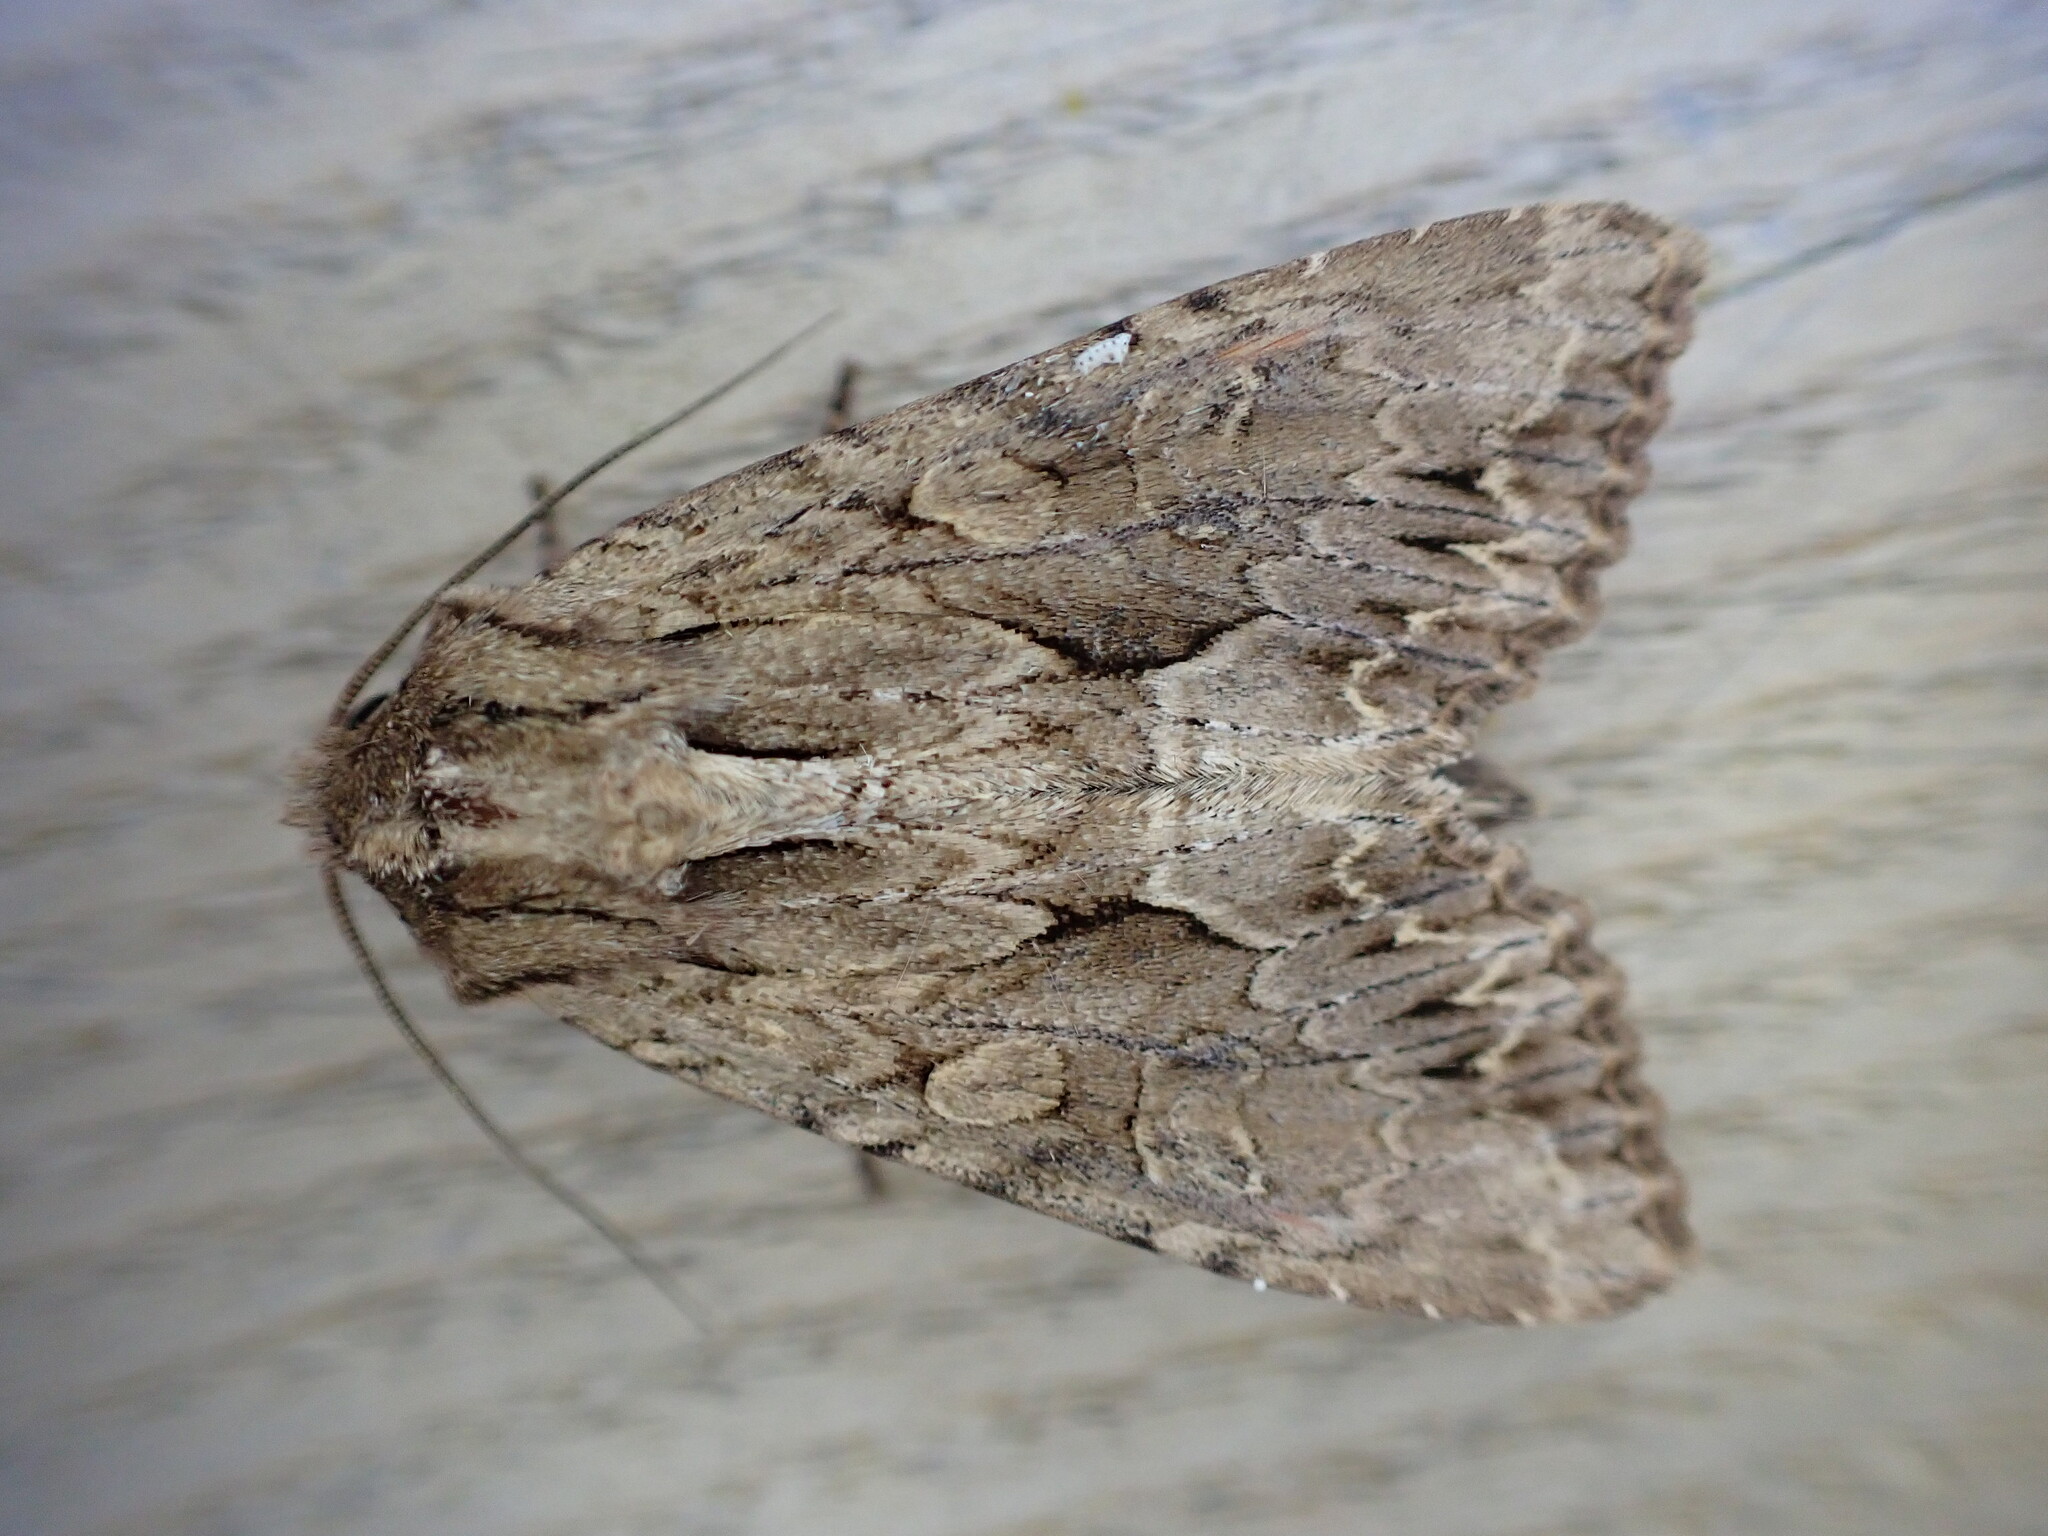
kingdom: Animalia
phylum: Arthropoda
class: Insecta
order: Lepidoptera
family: Noctuidae
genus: Apamea
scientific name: Apamea monoglypha
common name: Dark arches
